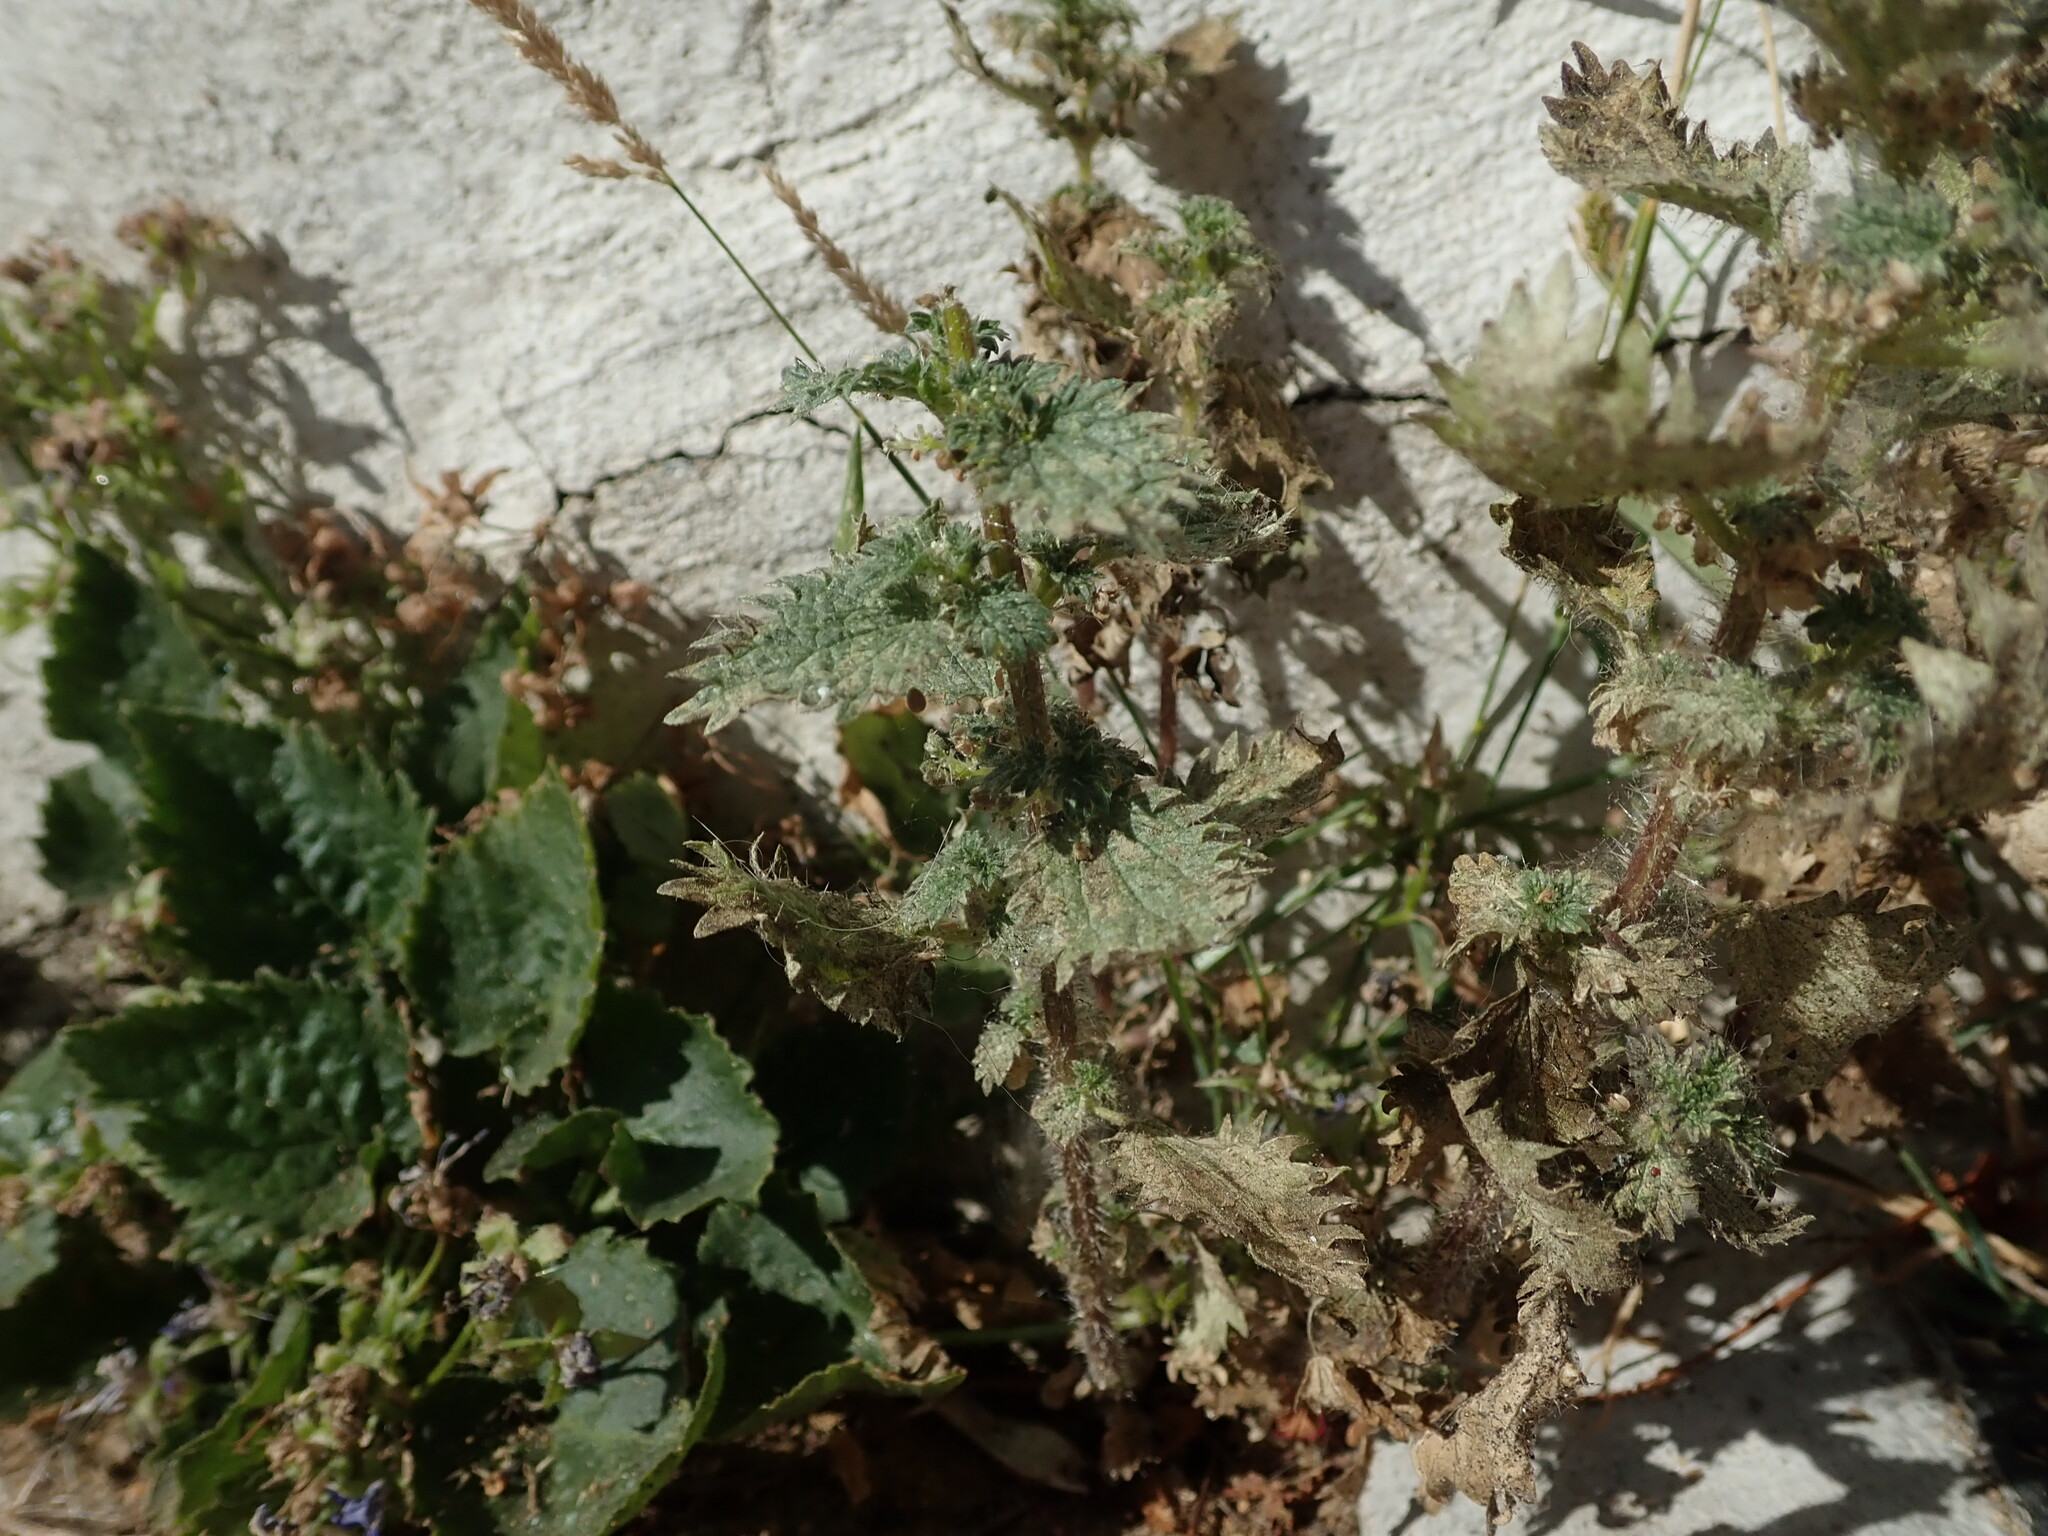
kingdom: Plantae
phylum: Tracheophyta
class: Magnoliopsida
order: Rosales
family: Urticaceae
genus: Urtica
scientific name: Urtica urens
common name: Dwarf nettle
